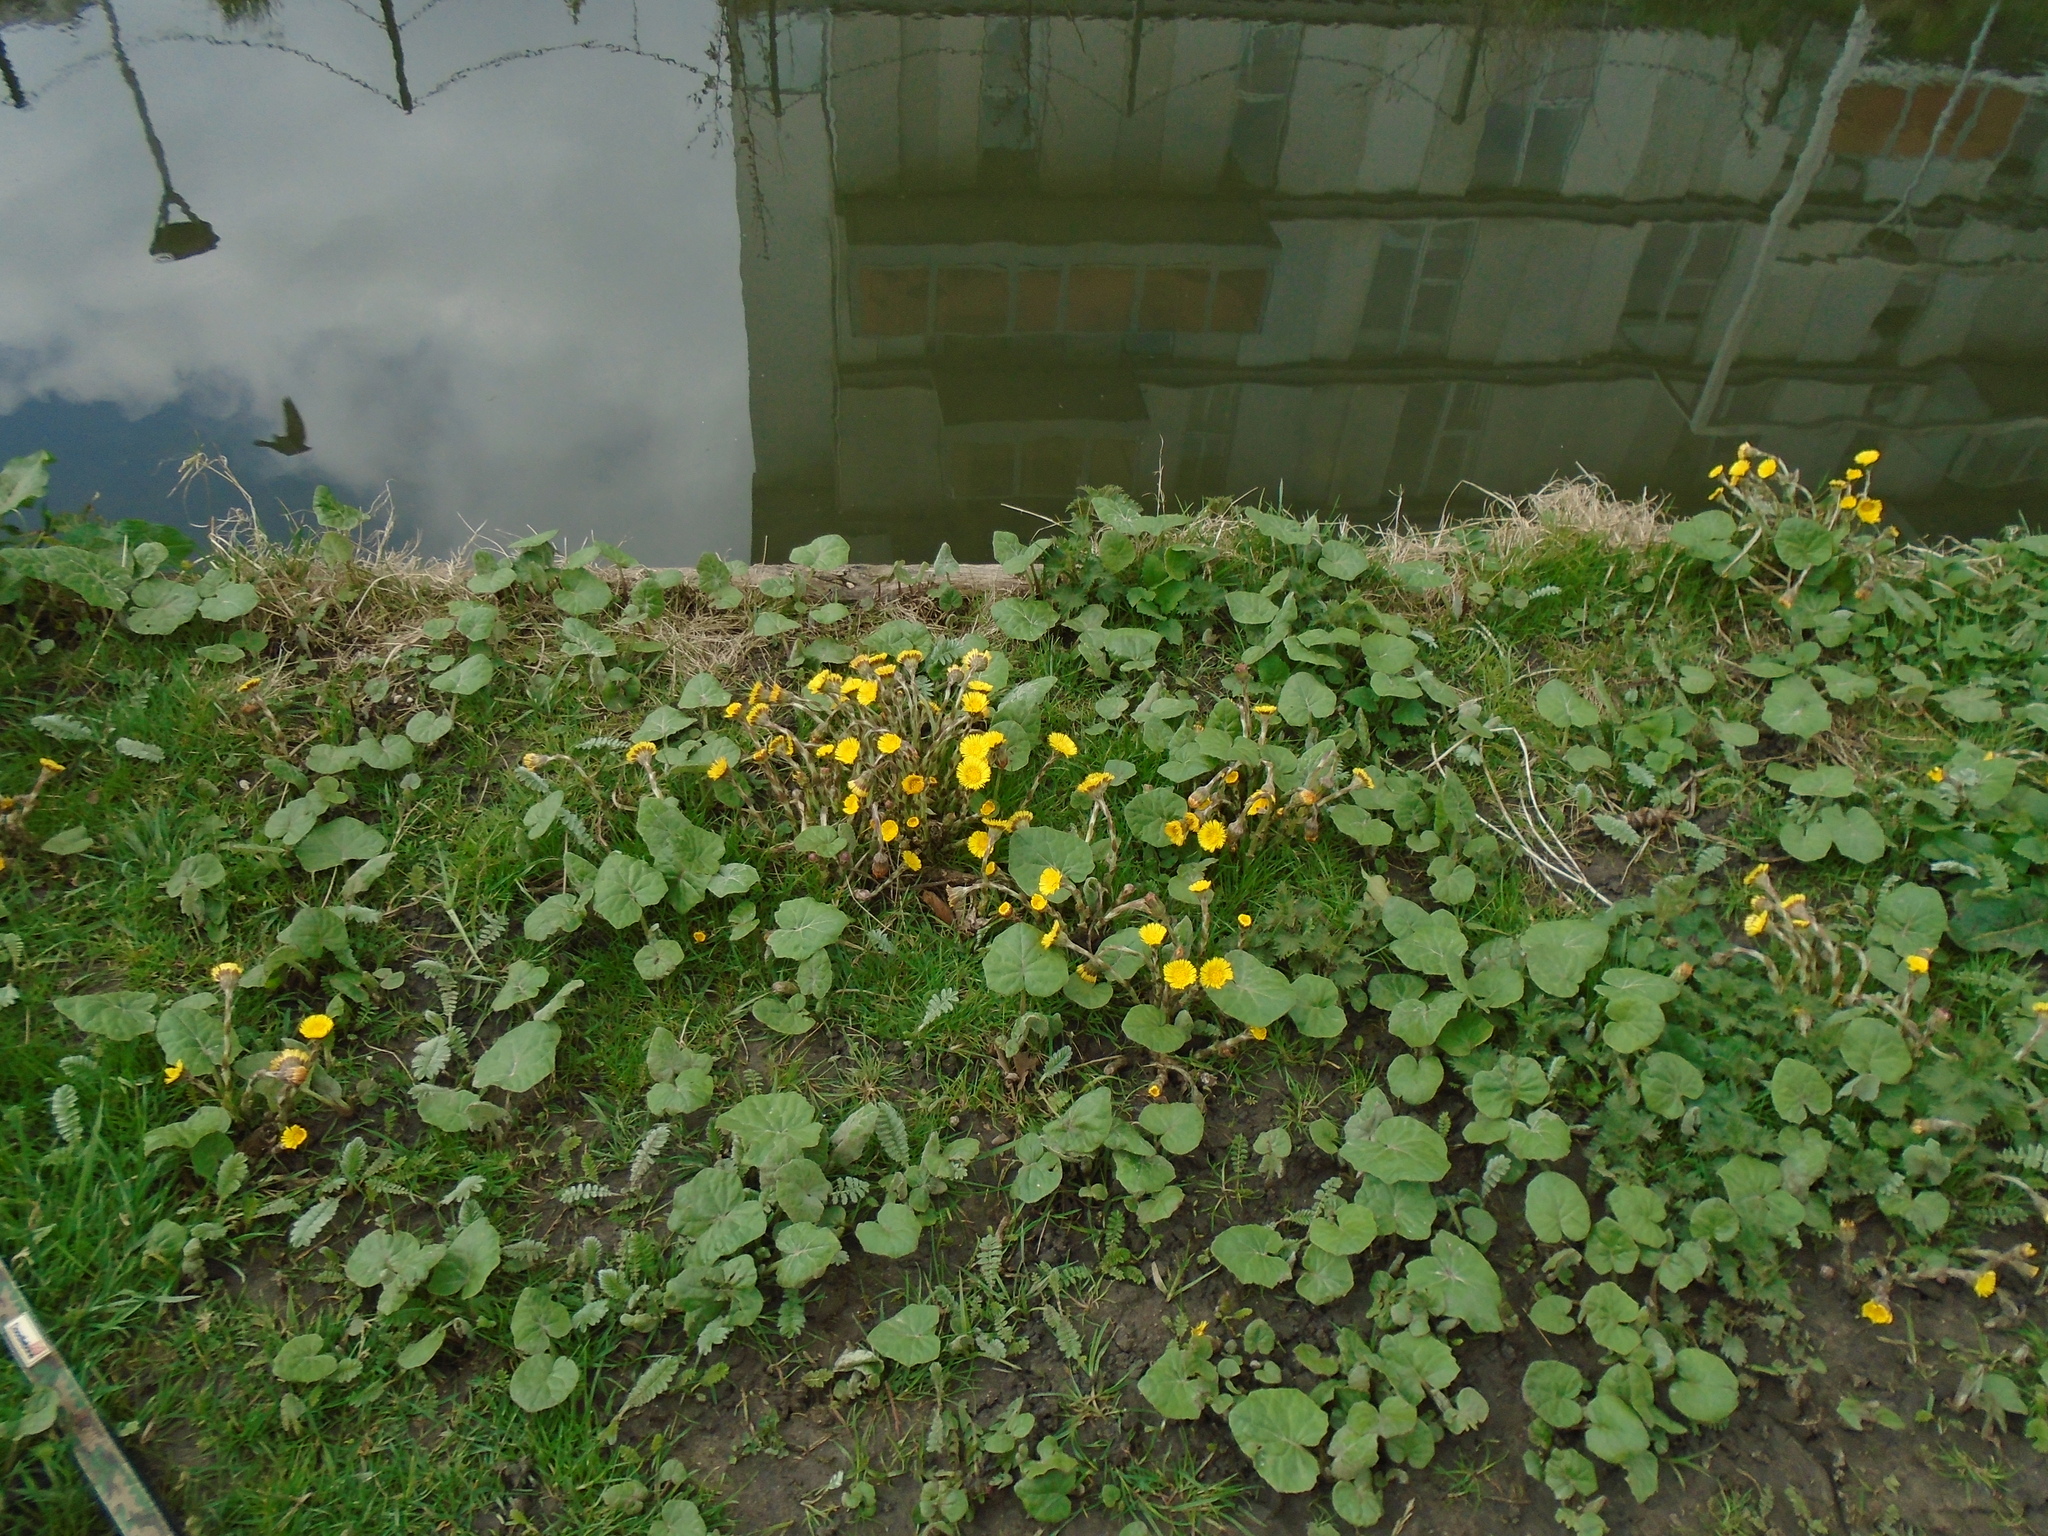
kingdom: Plantae
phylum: Tracheophyta
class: Magnoliopsida
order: Asterales
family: Asteraceae
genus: Tussilago
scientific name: Tussilago farfara
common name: Coltsfoot
